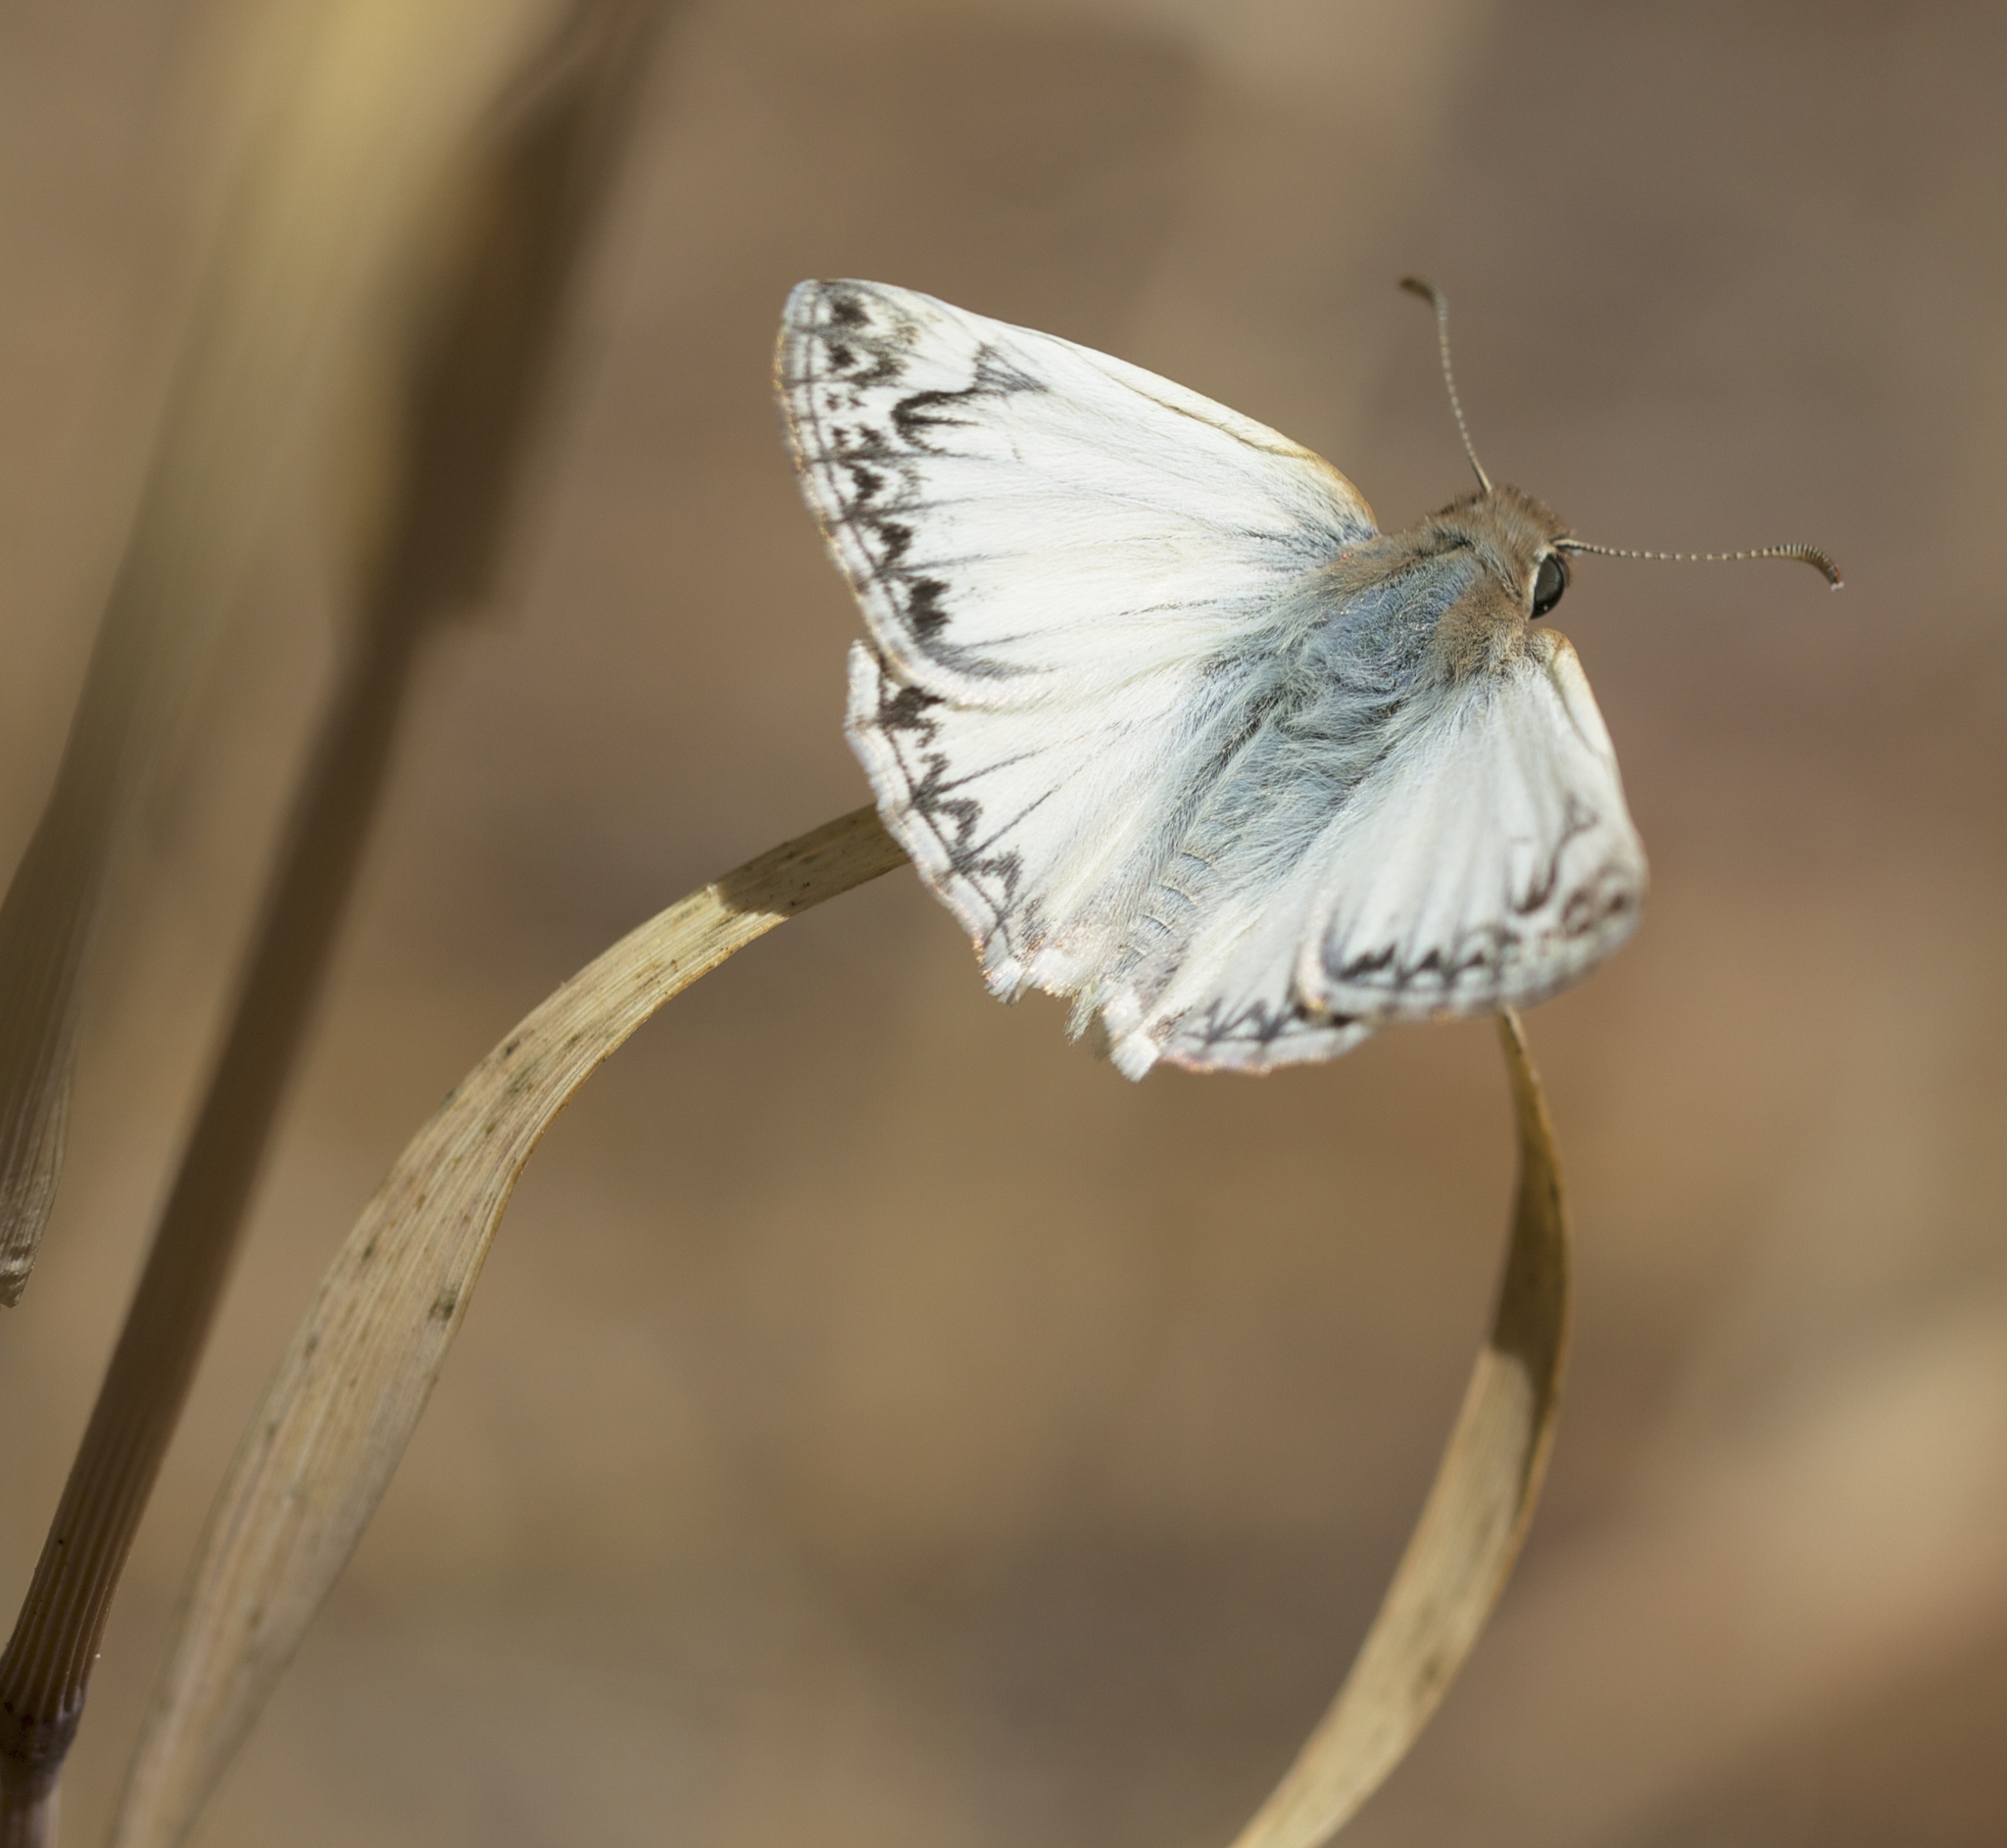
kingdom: Animalia
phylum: Arthropoda
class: Insecta
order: Lepidoptera
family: Hesperiidae
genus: Heliopetes
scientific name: Heliopetes ericetorum
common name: Northern white-skipper
